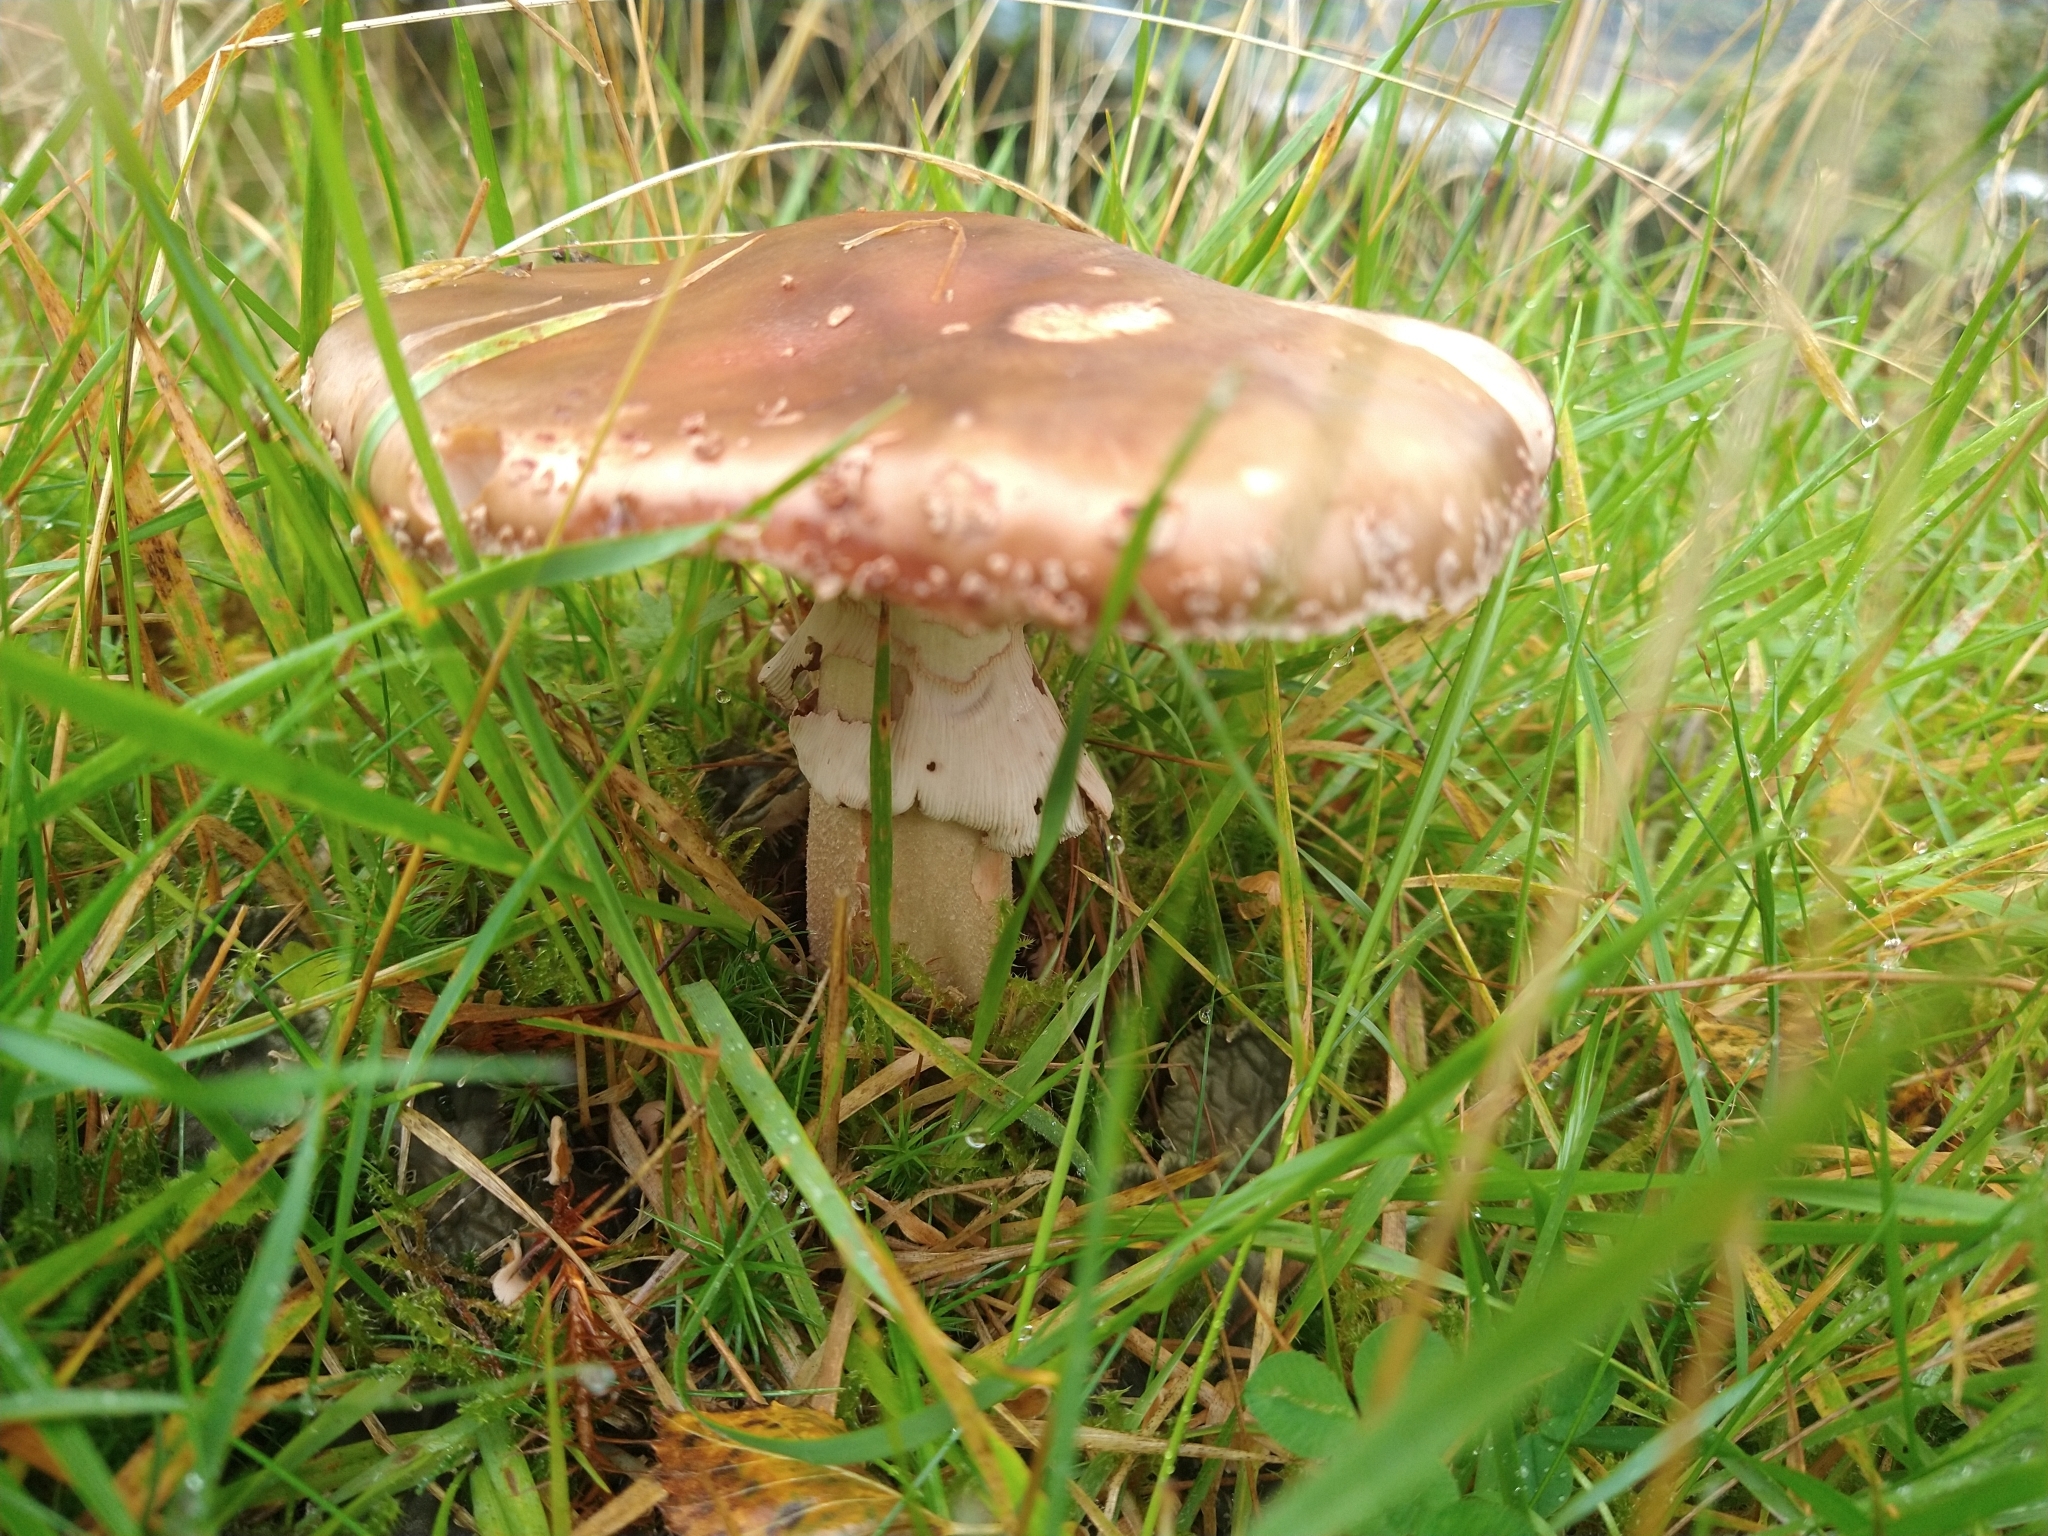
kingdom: Fungi
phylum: Basidiomycota
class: Agaricomycetes
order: Agaricales
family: Amanitaceae
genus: Amanita
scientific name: Amanita rubescens
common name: Blusher
